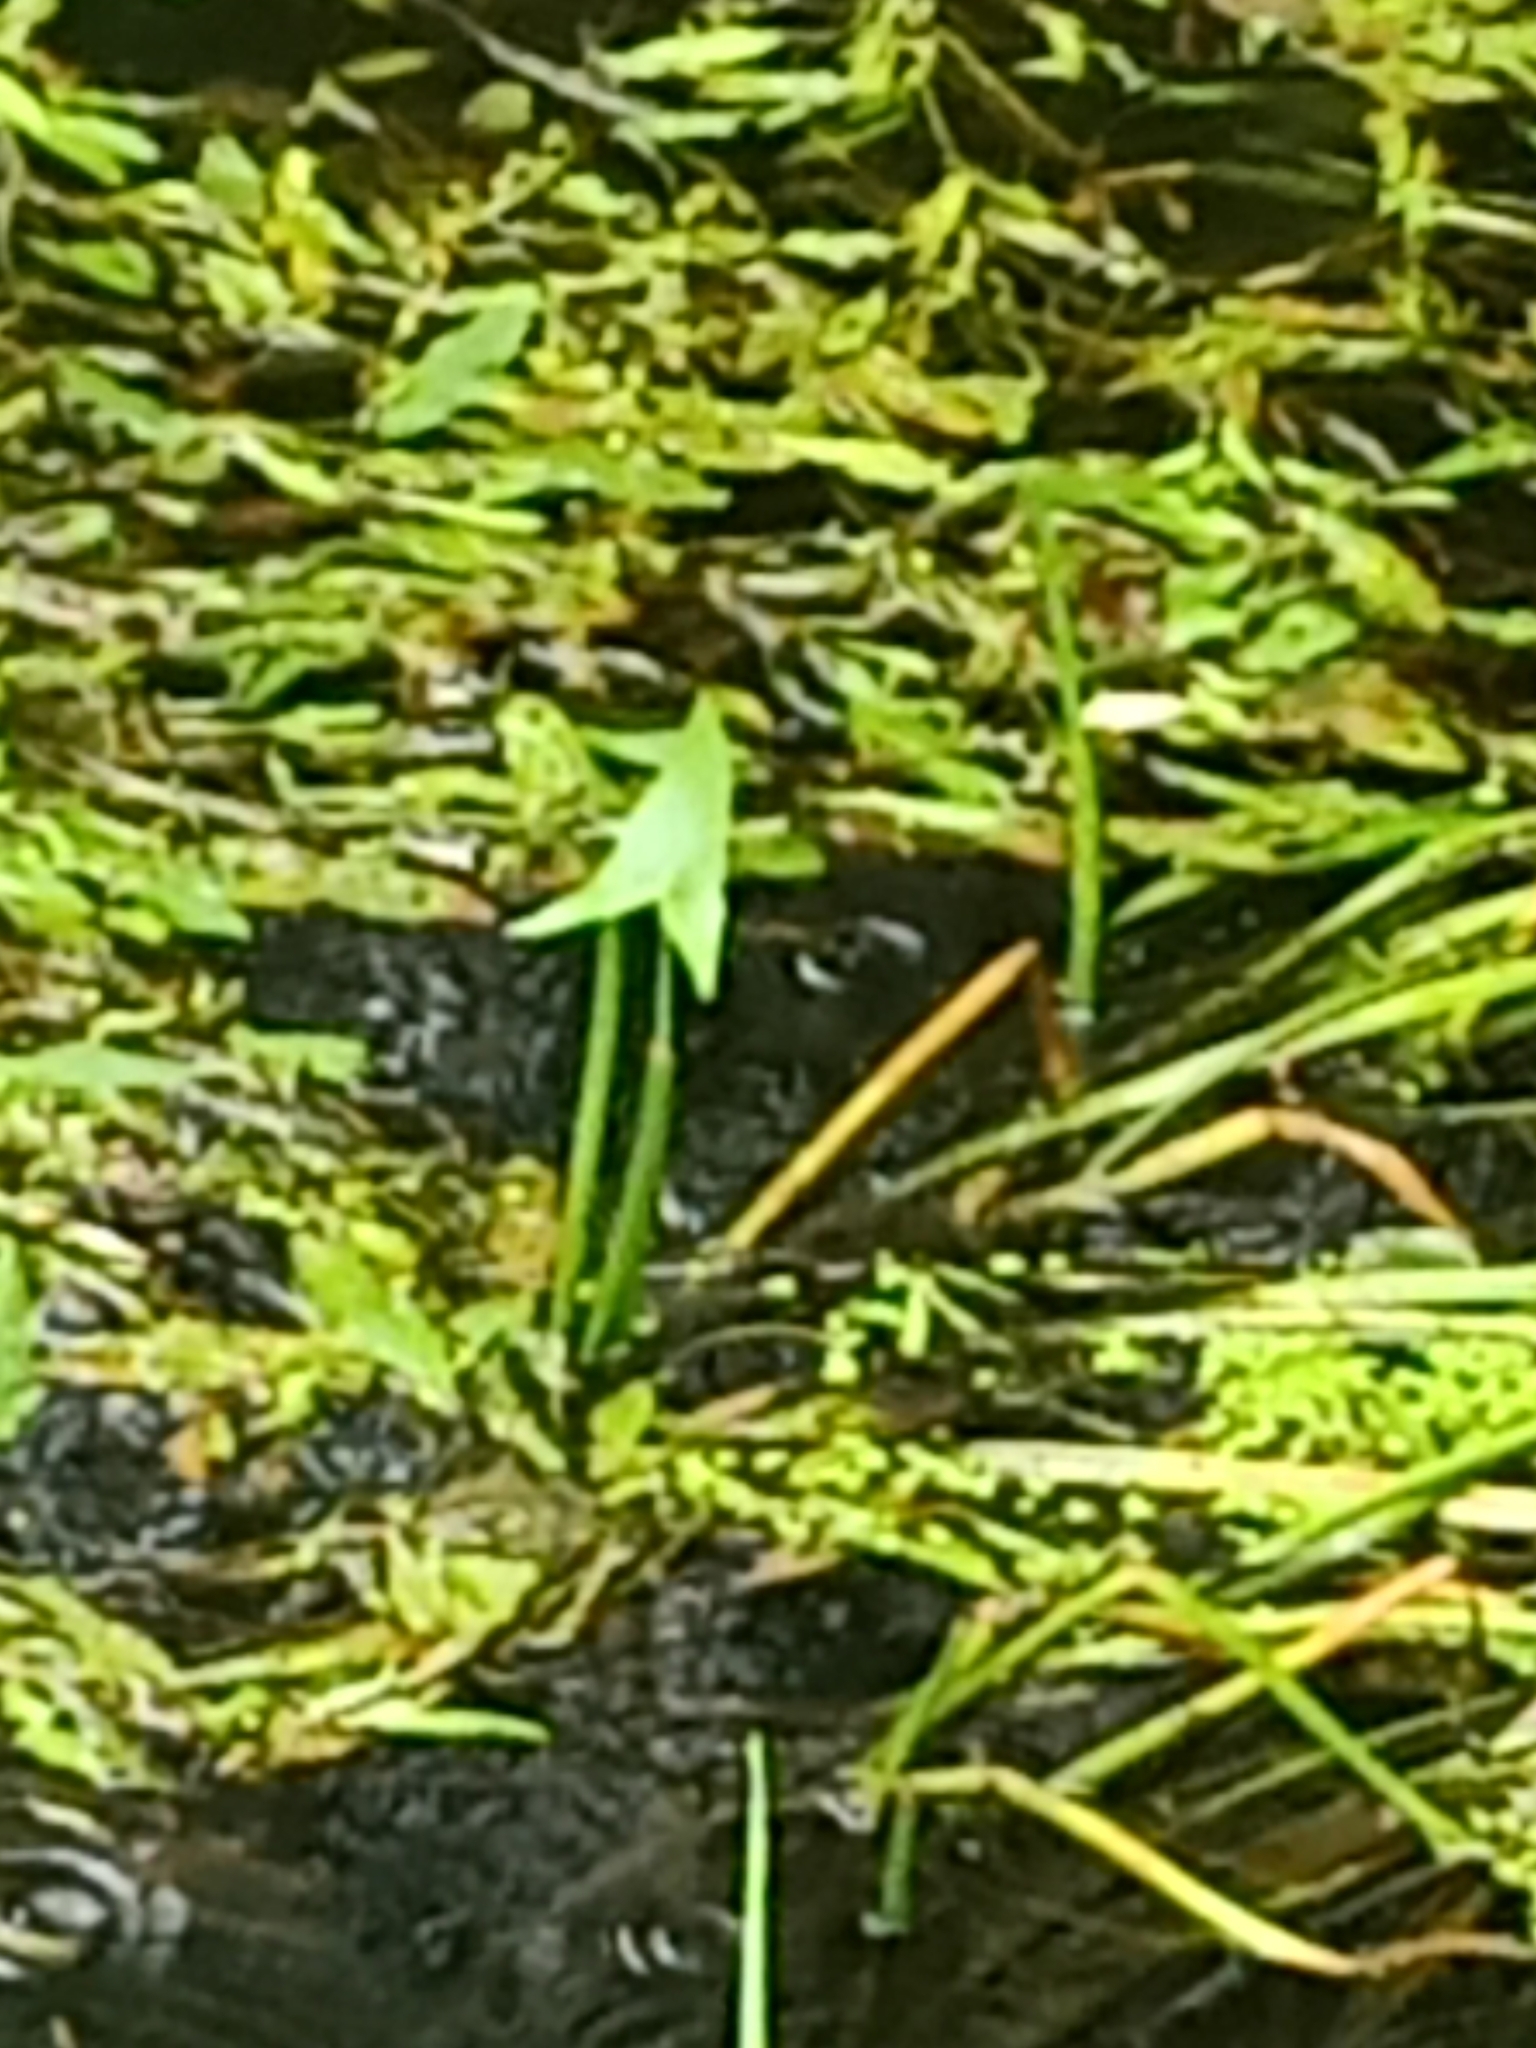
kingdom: Plantae
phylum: Tracheophyta
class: Liliopsida
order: Alismatales
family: Alismataceae
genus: Sagittaria
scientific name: Sagittaria sagittifolia
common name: Arrowhead
